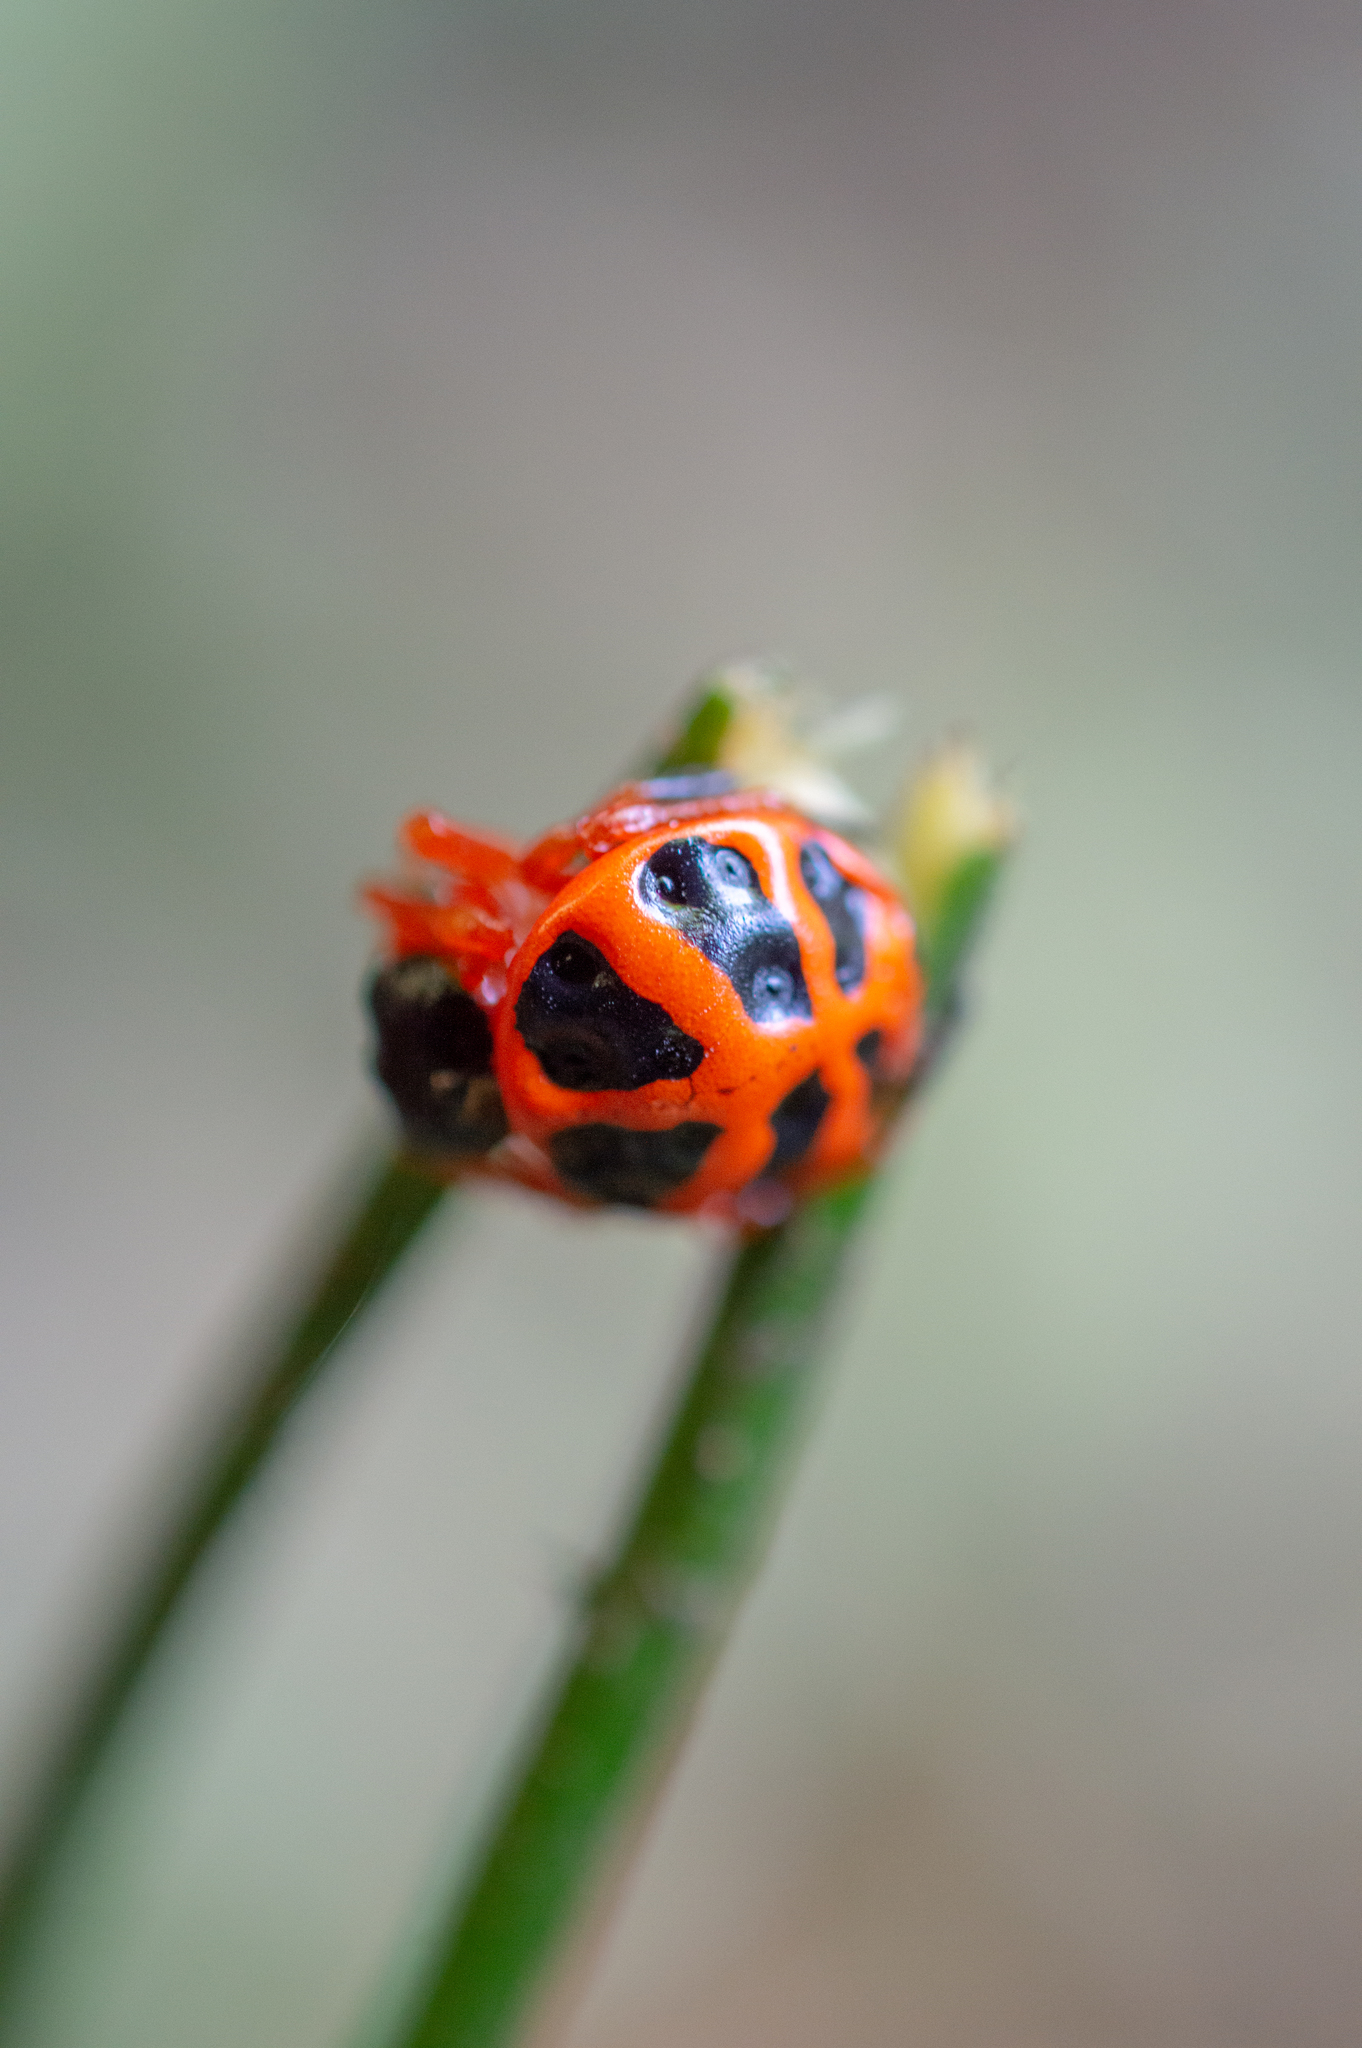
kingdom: Animalia
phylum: Arthropoda
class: Arachnida
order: Araneae
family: Araneidae
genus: Encyosaccus
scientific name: Encyosaccus sexmaculatus
